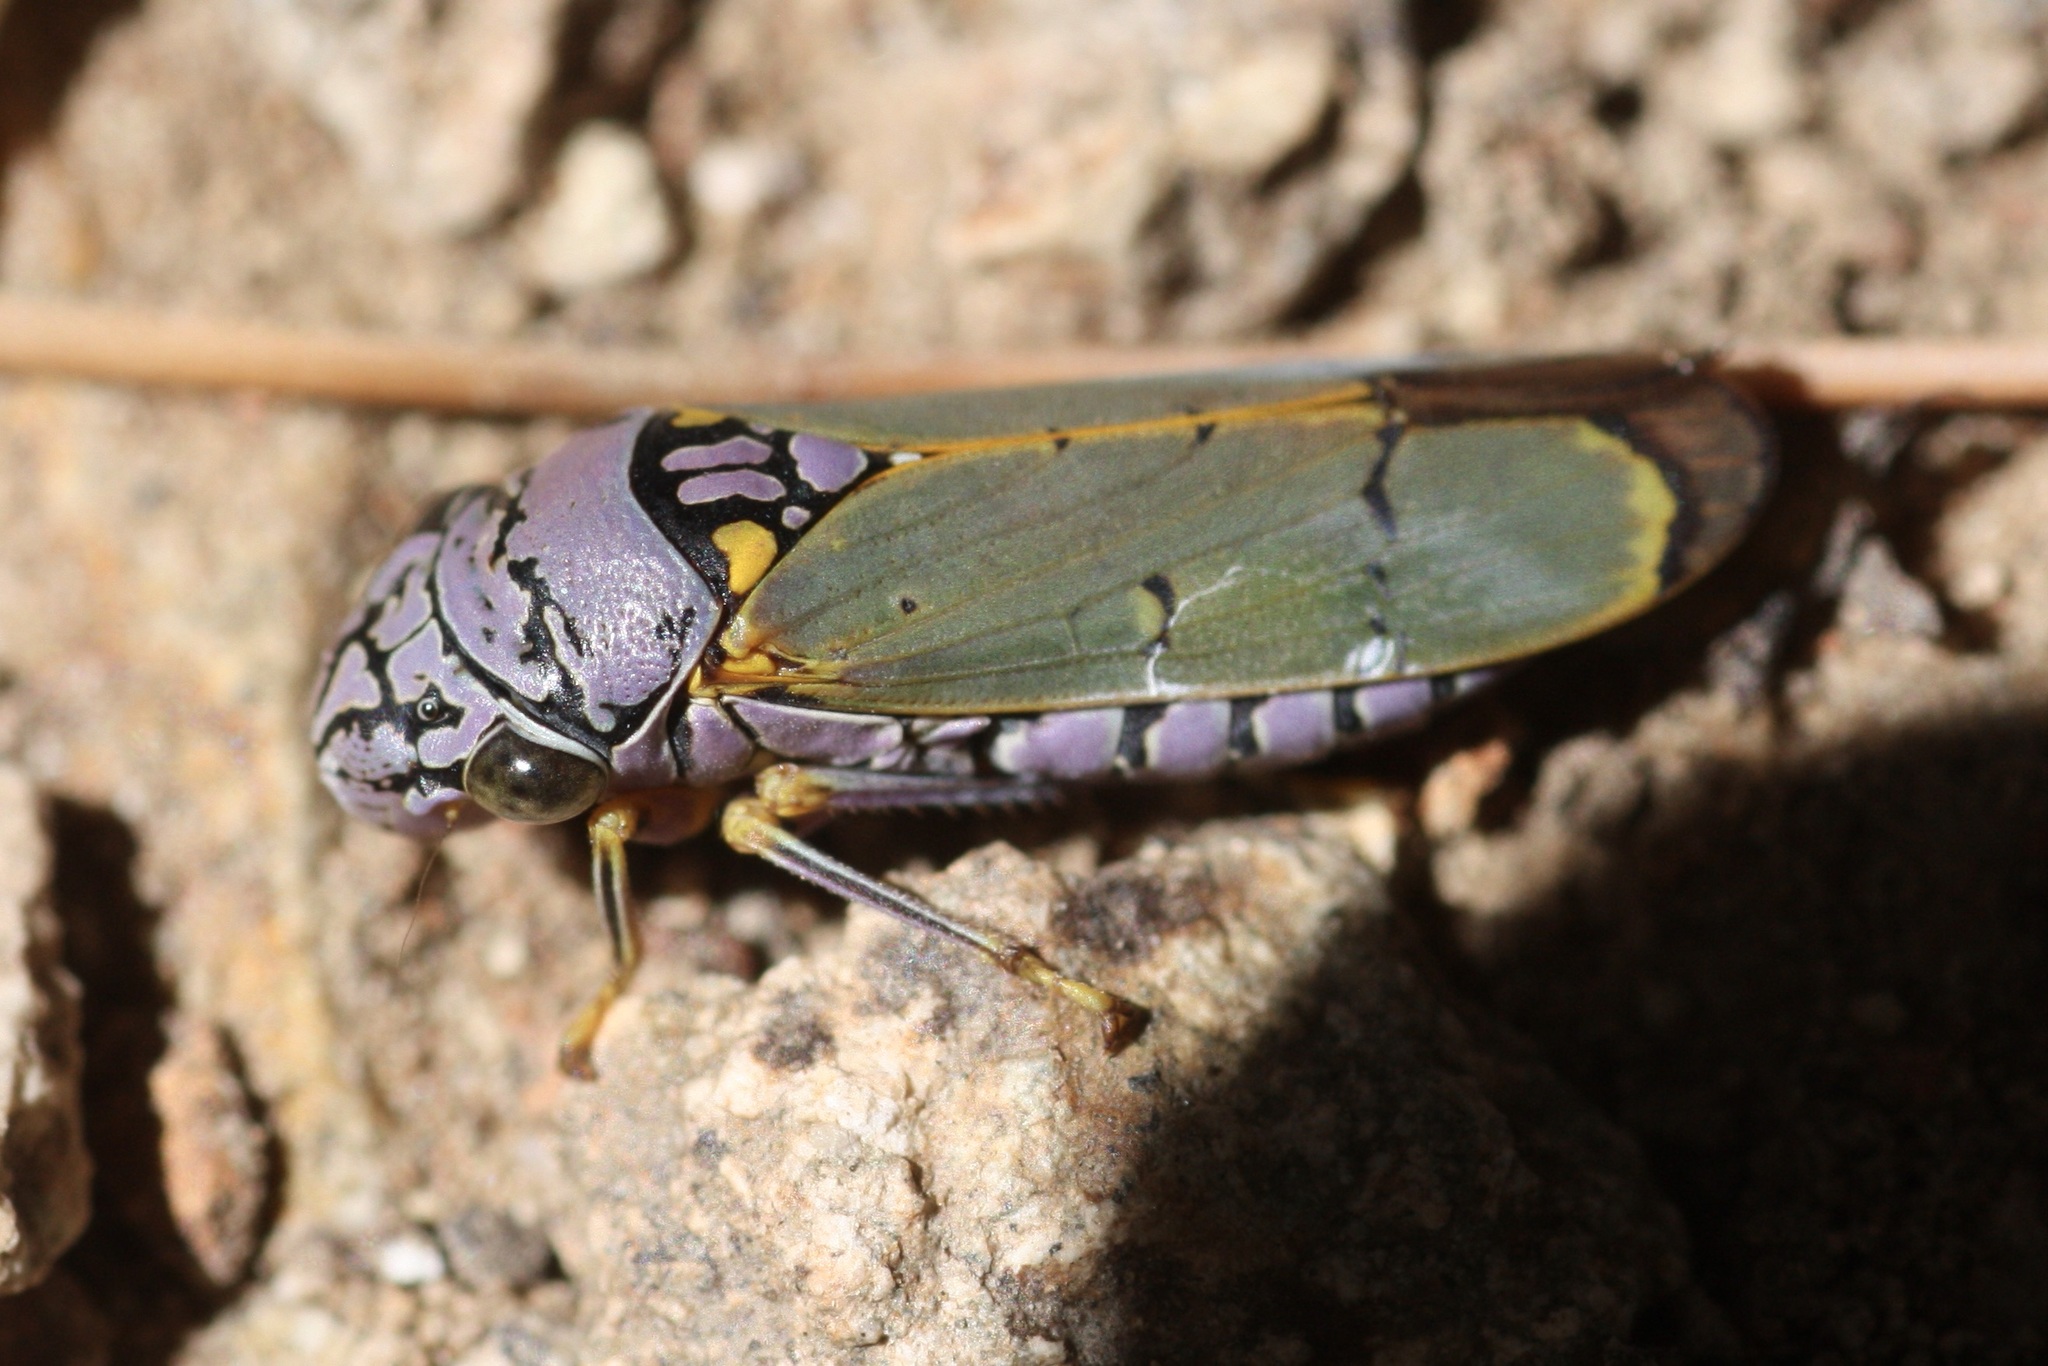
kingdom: Animalia
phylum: Arthropoda
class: Insecta
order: Hemiptera
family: Cicadellidae
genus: Oncometopia
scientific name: Oncometopia alpha
